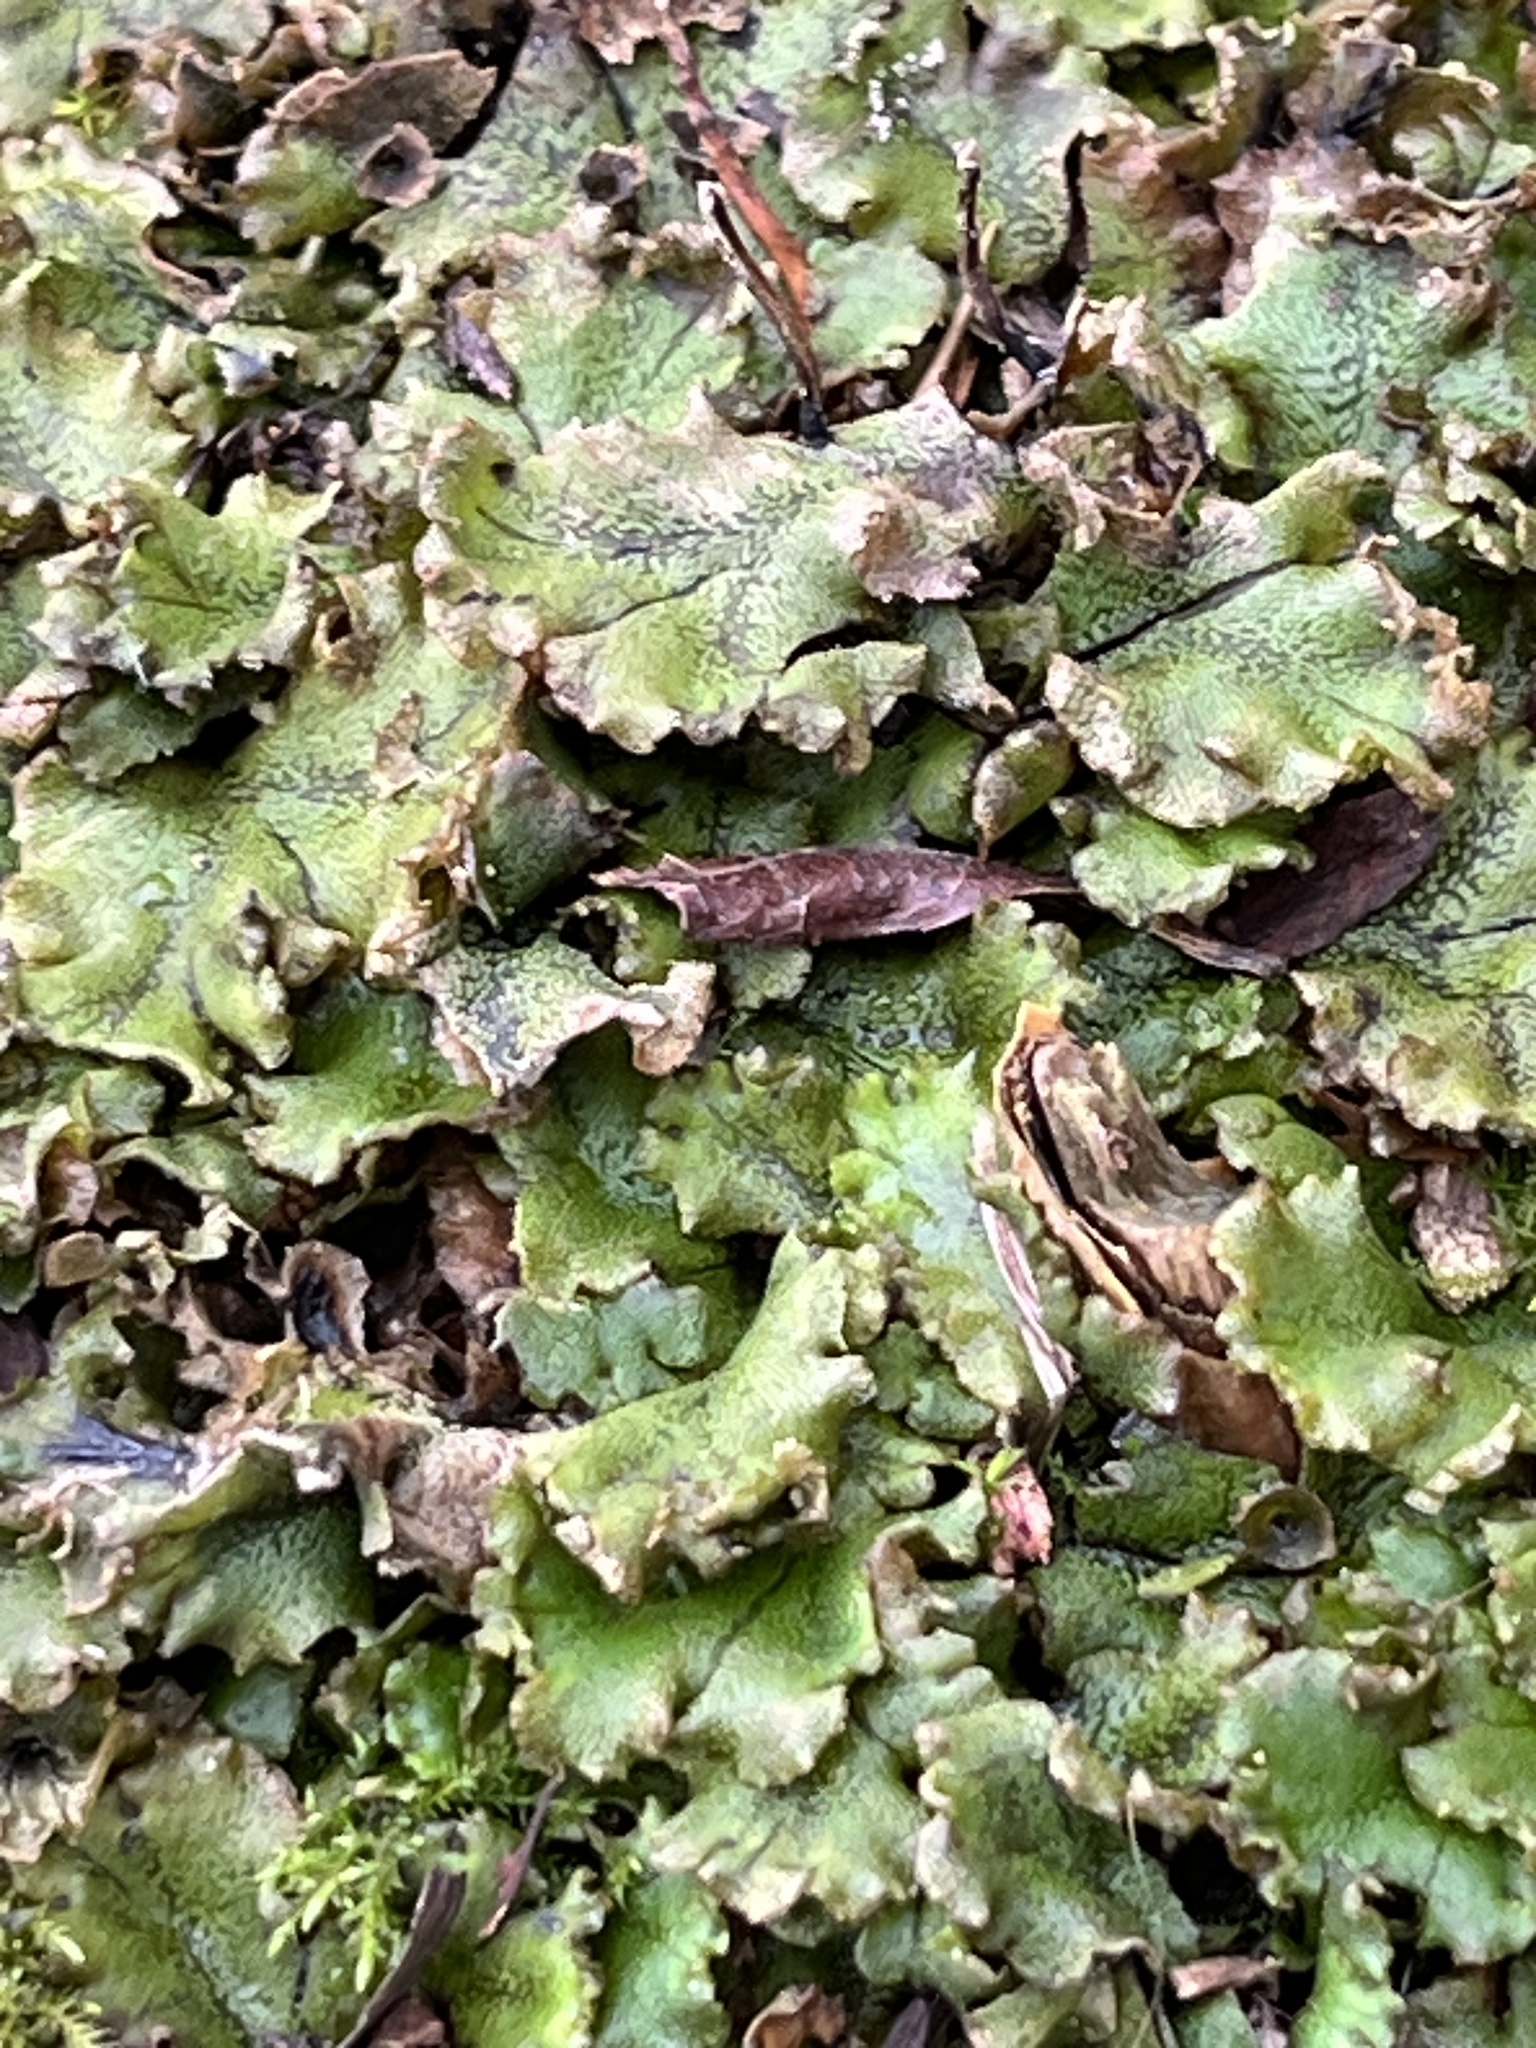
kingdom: Plantae
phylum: Marchantiophyta
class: Marchantiopsida
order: Marchantiales
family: Marchantiaceae
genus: Marchantia
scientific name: Marchantia polymorpha
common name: Common liverwort
